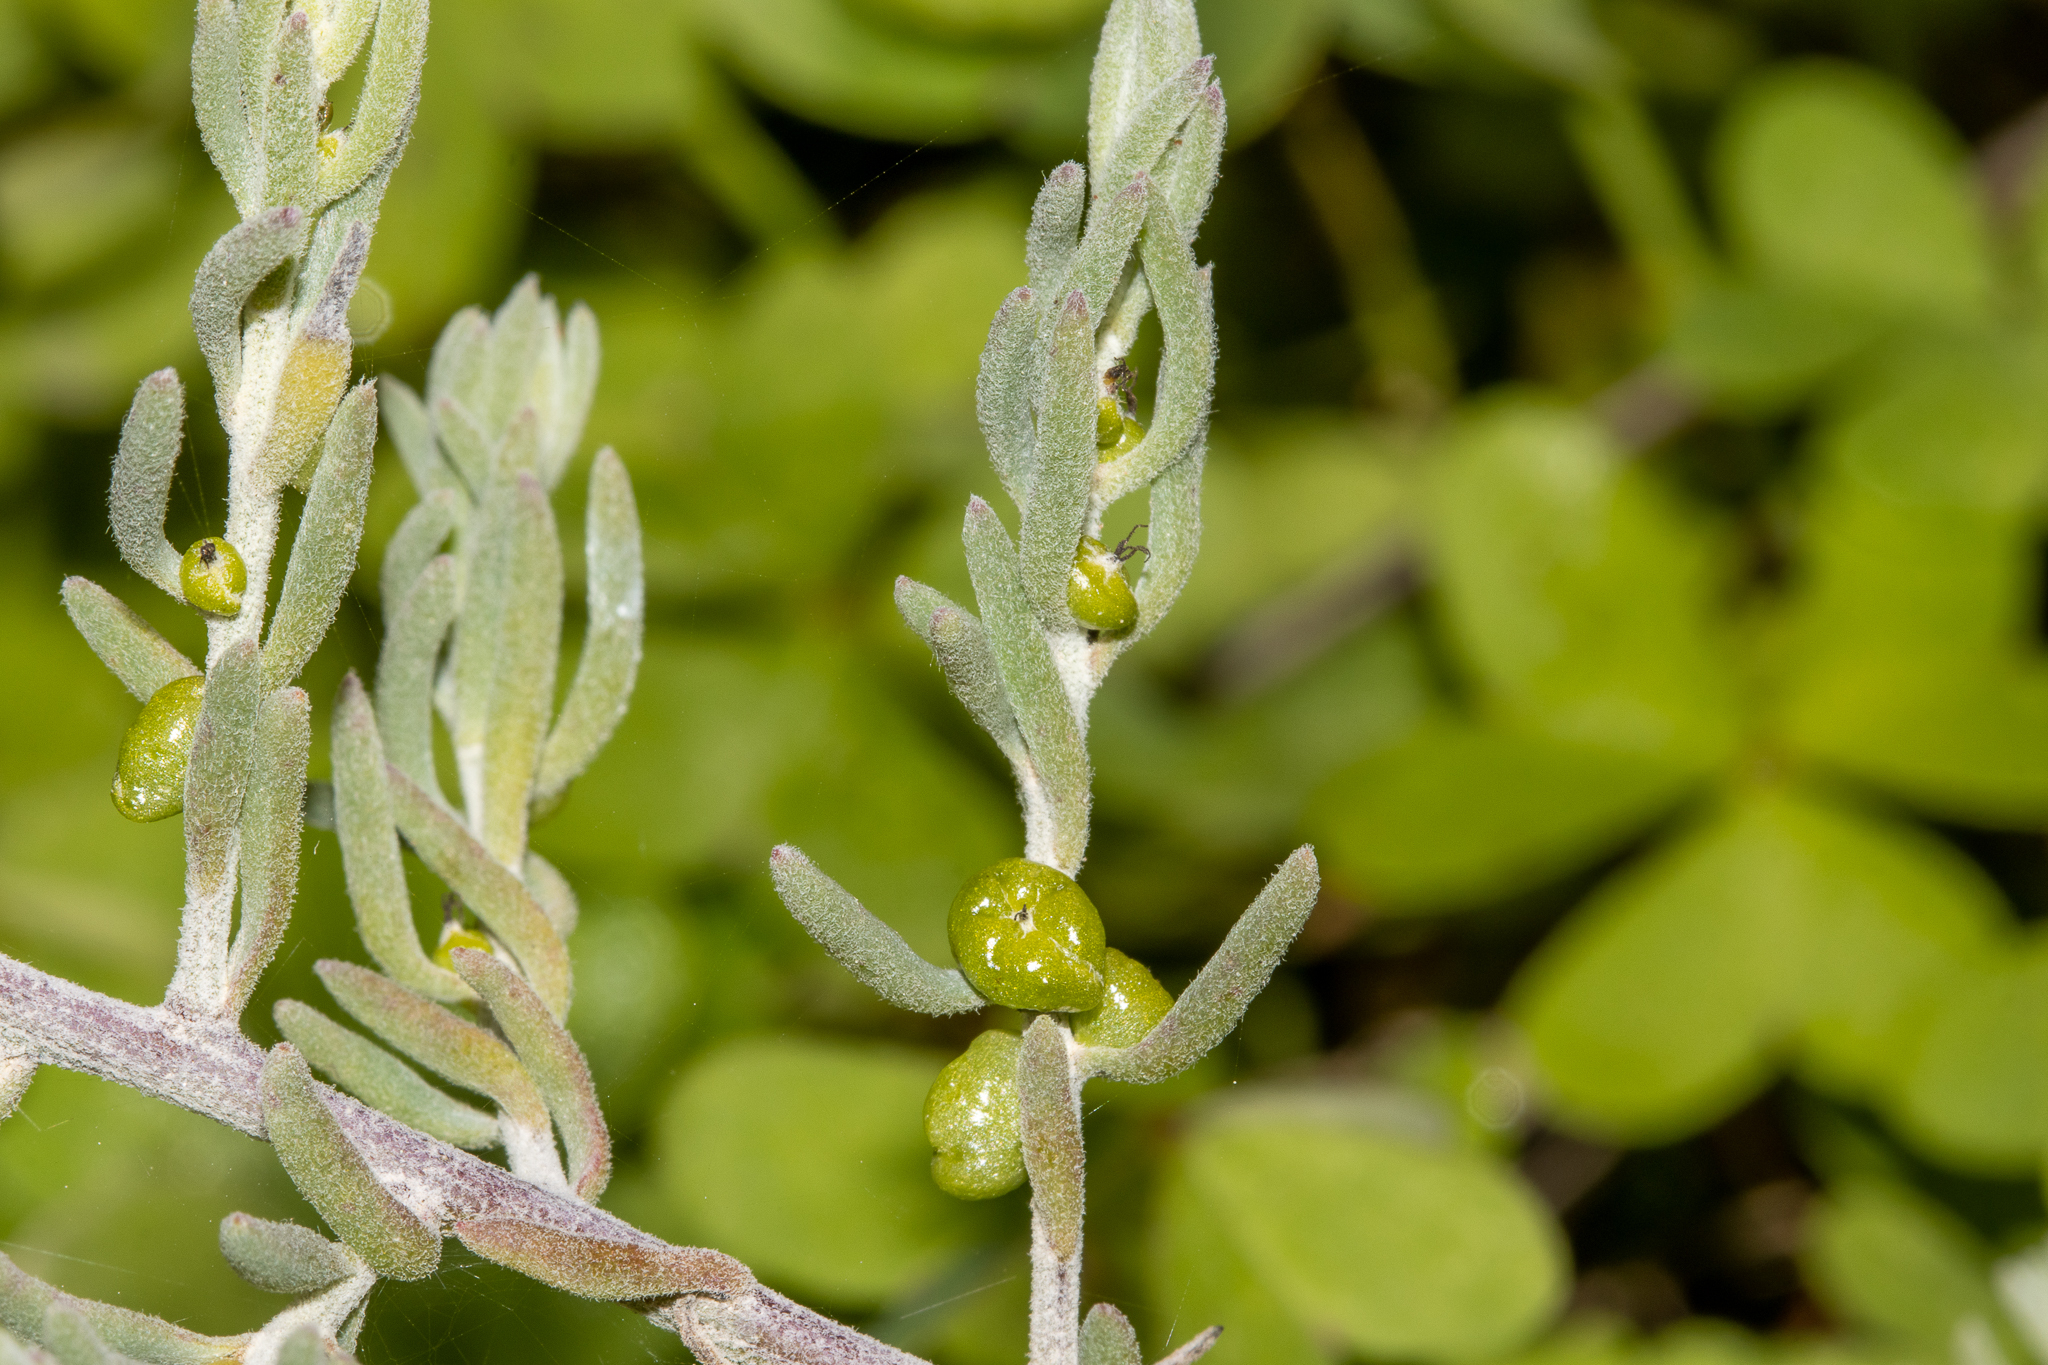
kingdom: Plantae
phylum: Tracheophyta
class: Magnoliopsida
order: Caryophyllales
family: Amaranthaceae
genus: Enchylaena
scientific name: Enchylaena tomentosa
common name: Ruby saltbush
